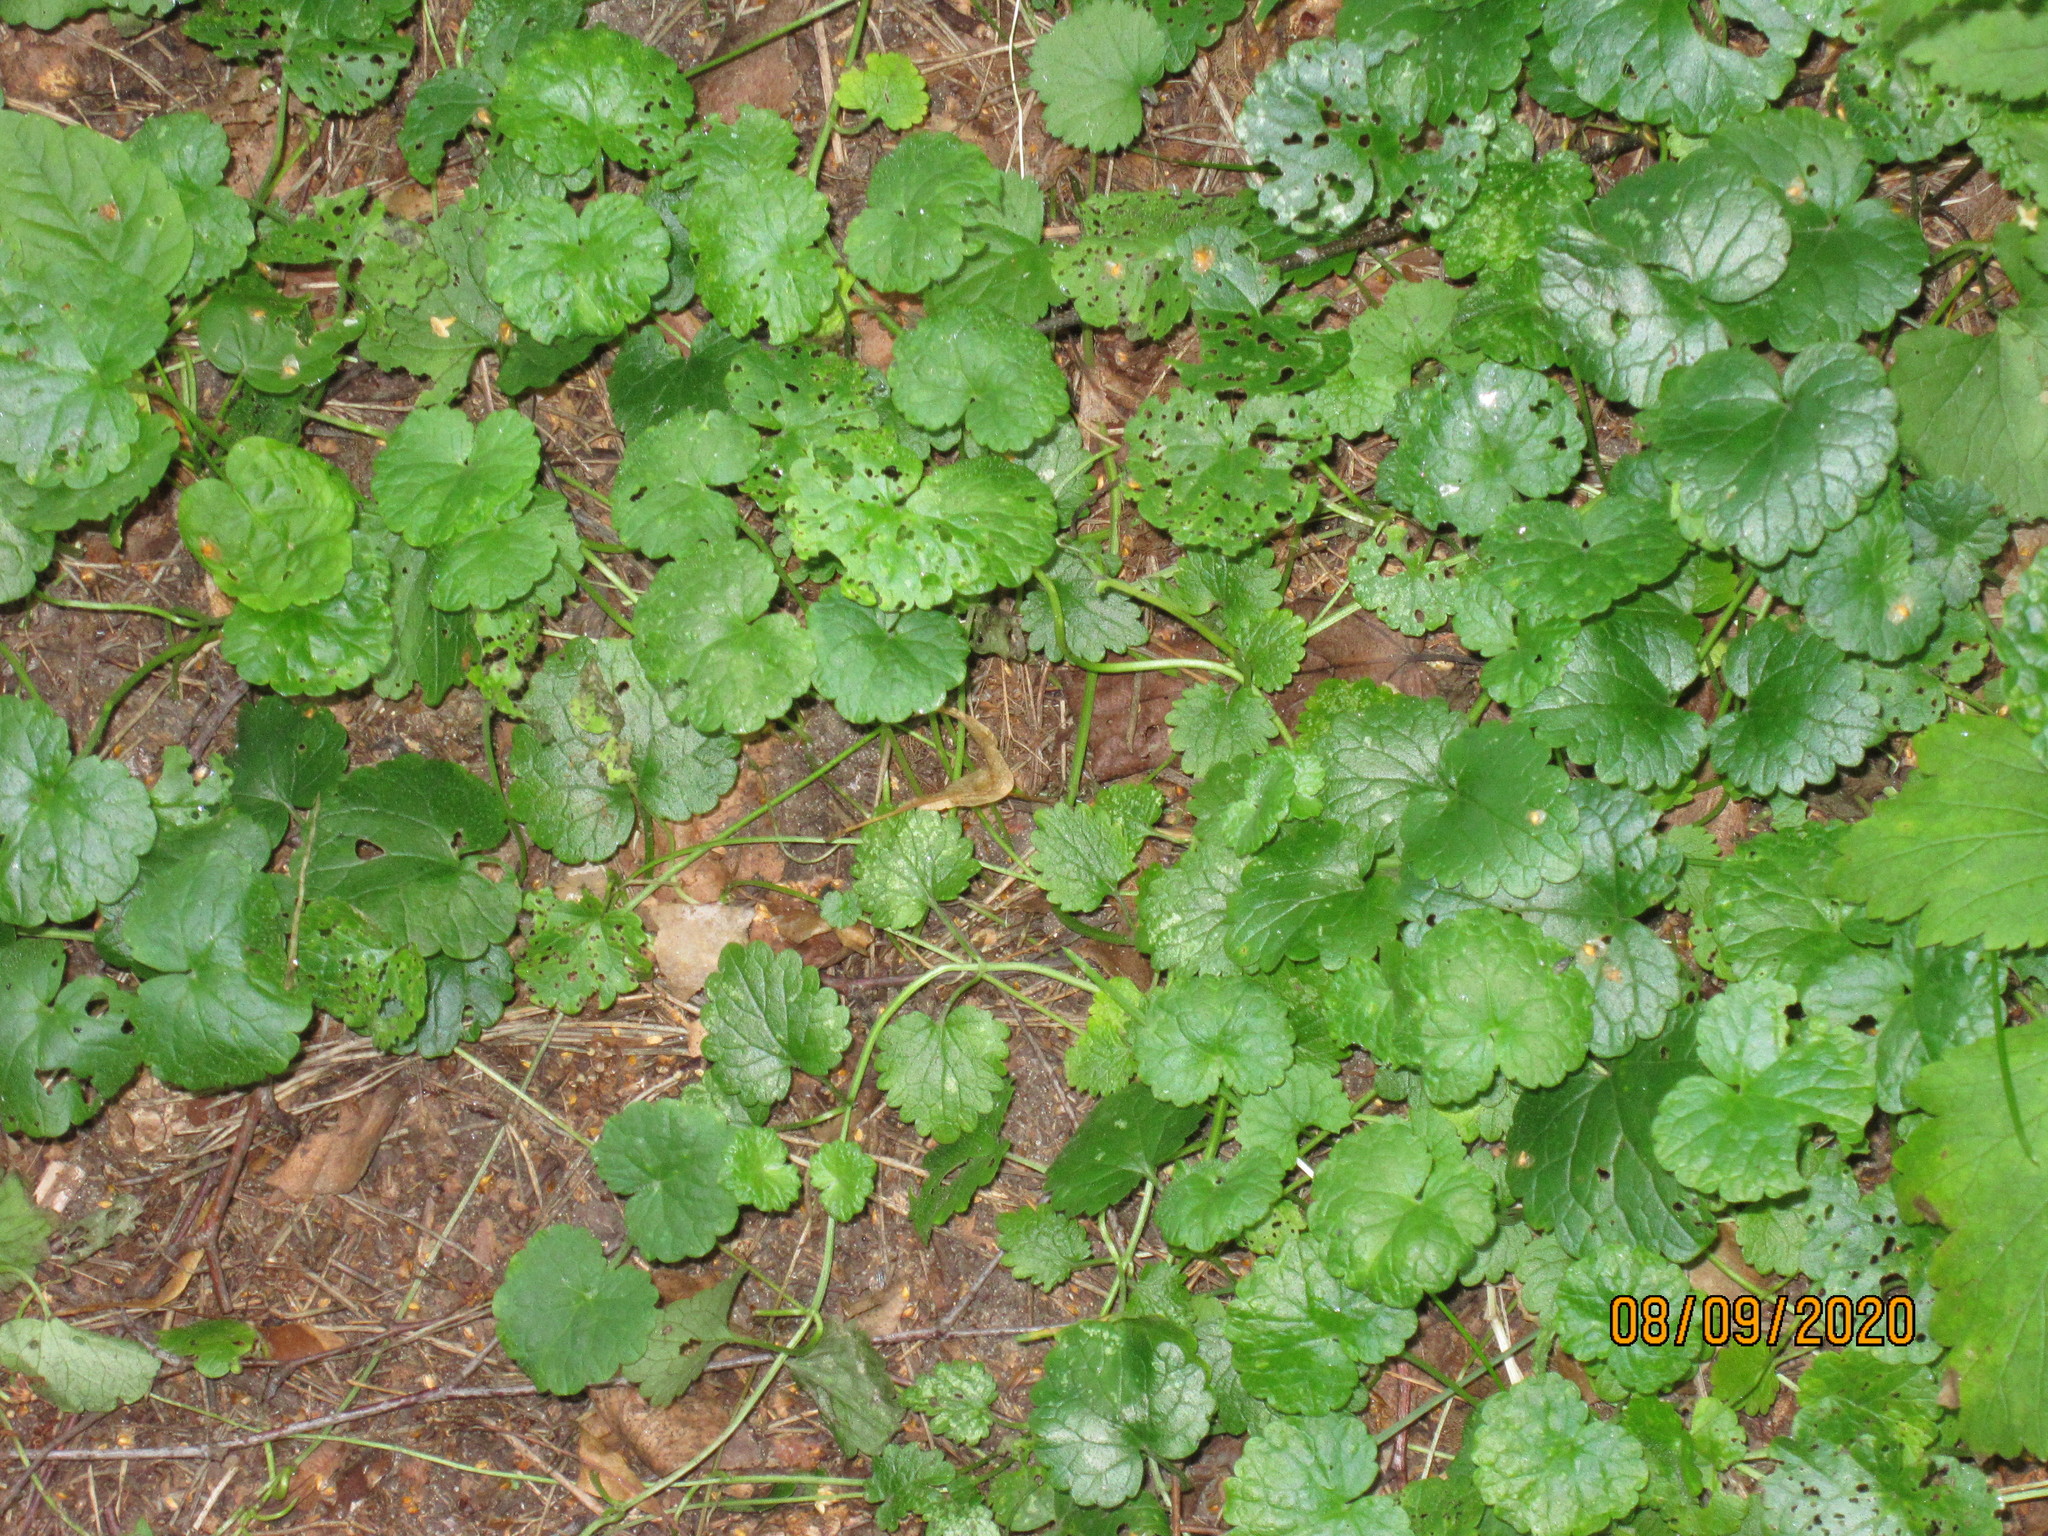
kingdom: Plantae
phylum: Tracheophyta
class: Magnoliopsida
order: Lamiales
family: Lamiaceae
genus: Glechoma
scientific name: Glechoma hederacea
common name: Ground ivy
